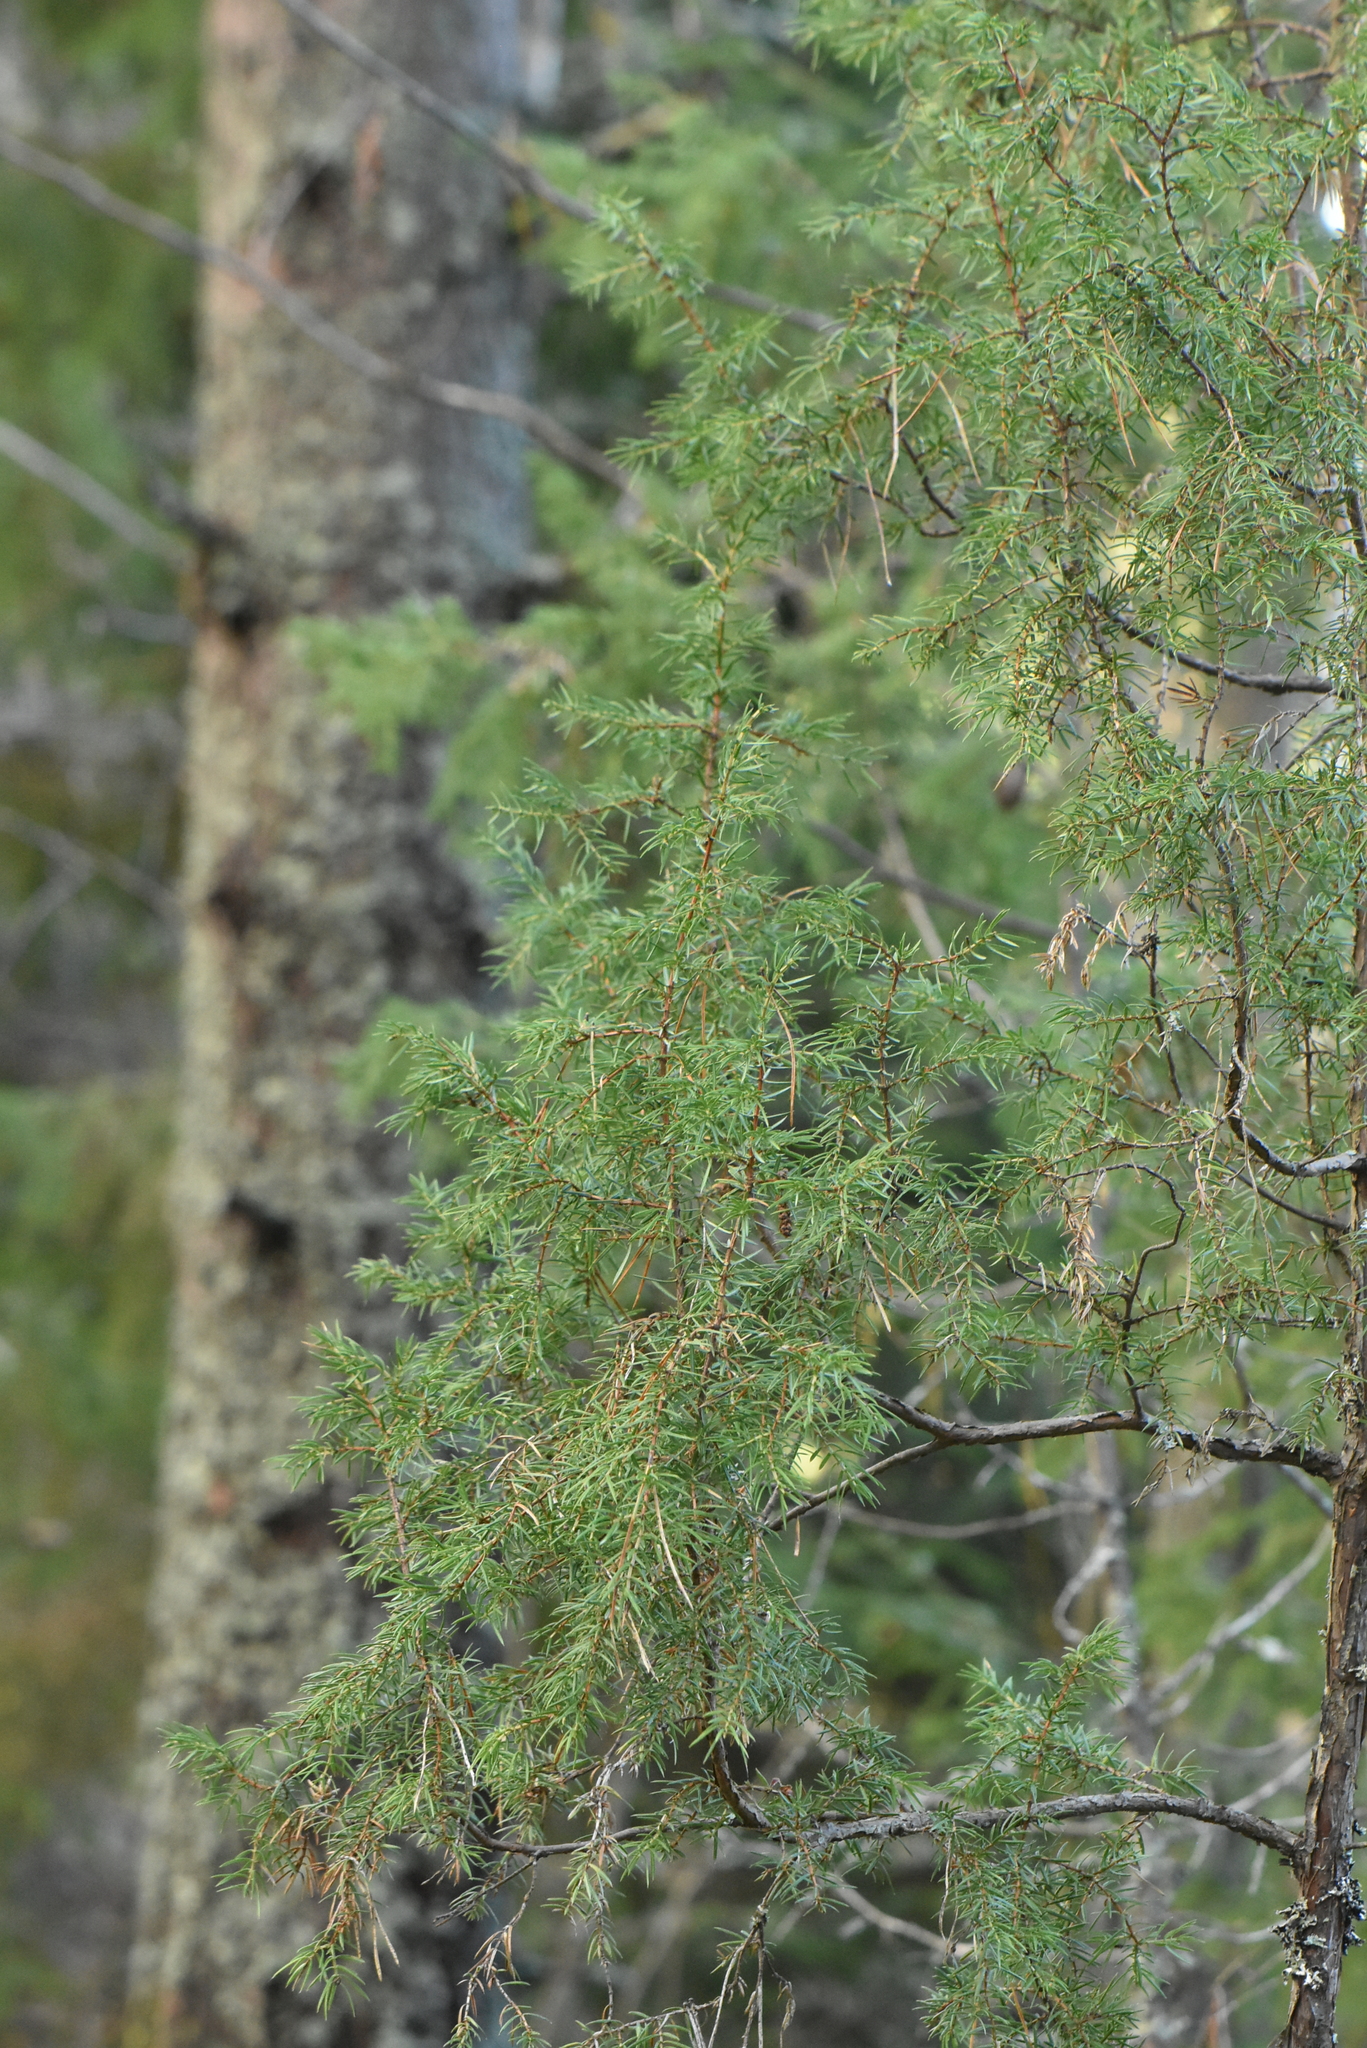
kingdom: Plantae
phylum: Tracheophyta
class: Pinopsida
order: Pinales
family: Cupressaceae
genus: Juniperus
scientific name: Juniperus communis
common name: Common juniper
